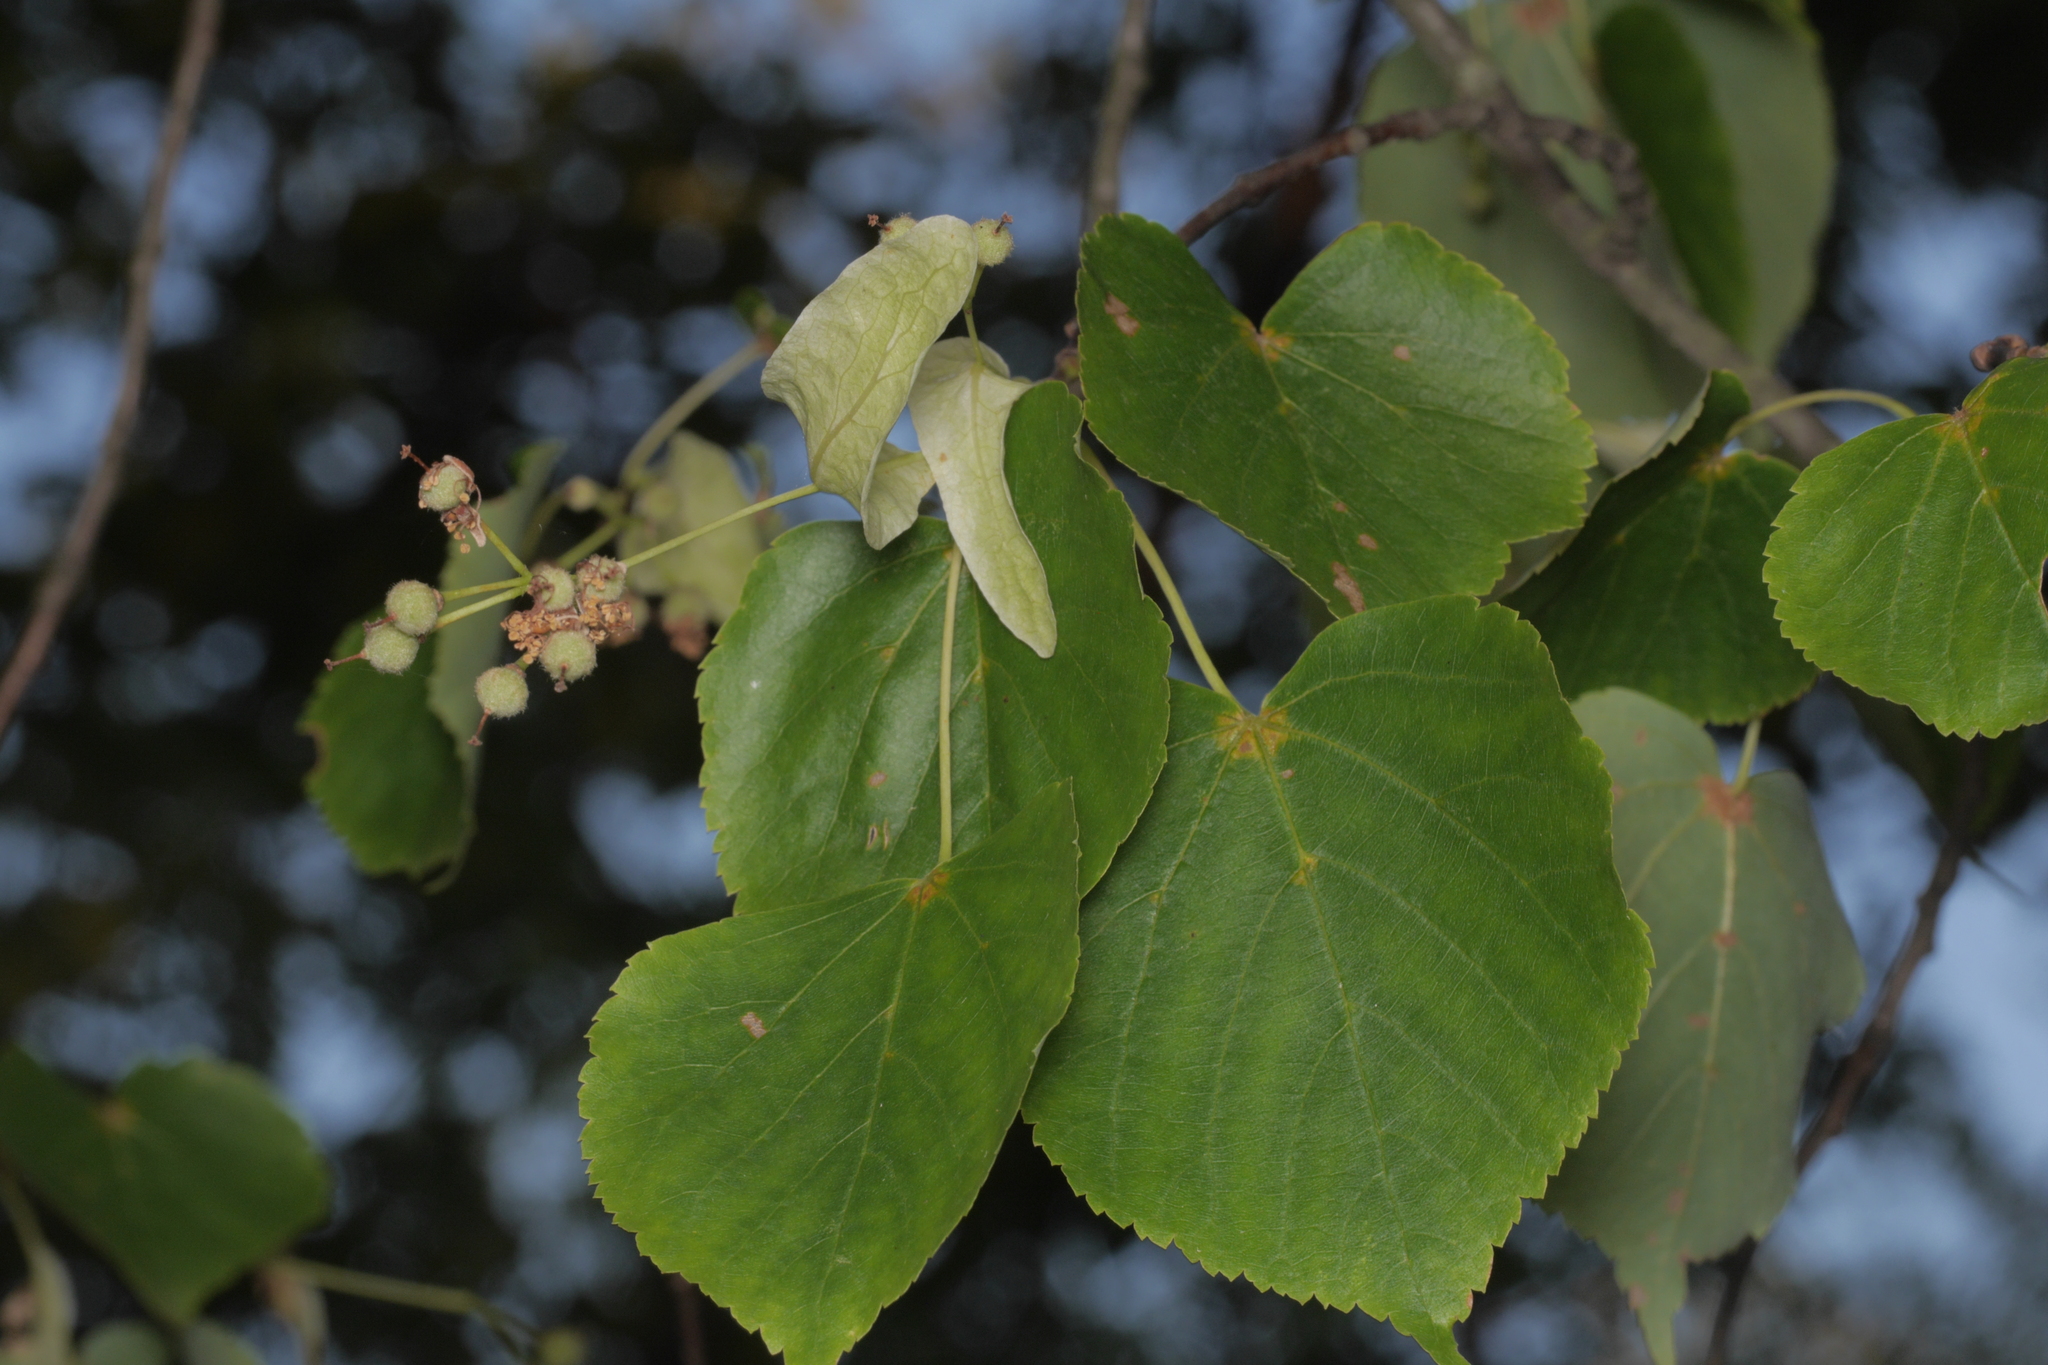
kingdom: Plantae
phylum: Tracheophyta
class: Magnoliopsida
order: Malvales
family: Malvaceae
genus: Tilia
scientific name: Tilia cordata
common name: Small-leaved lime
